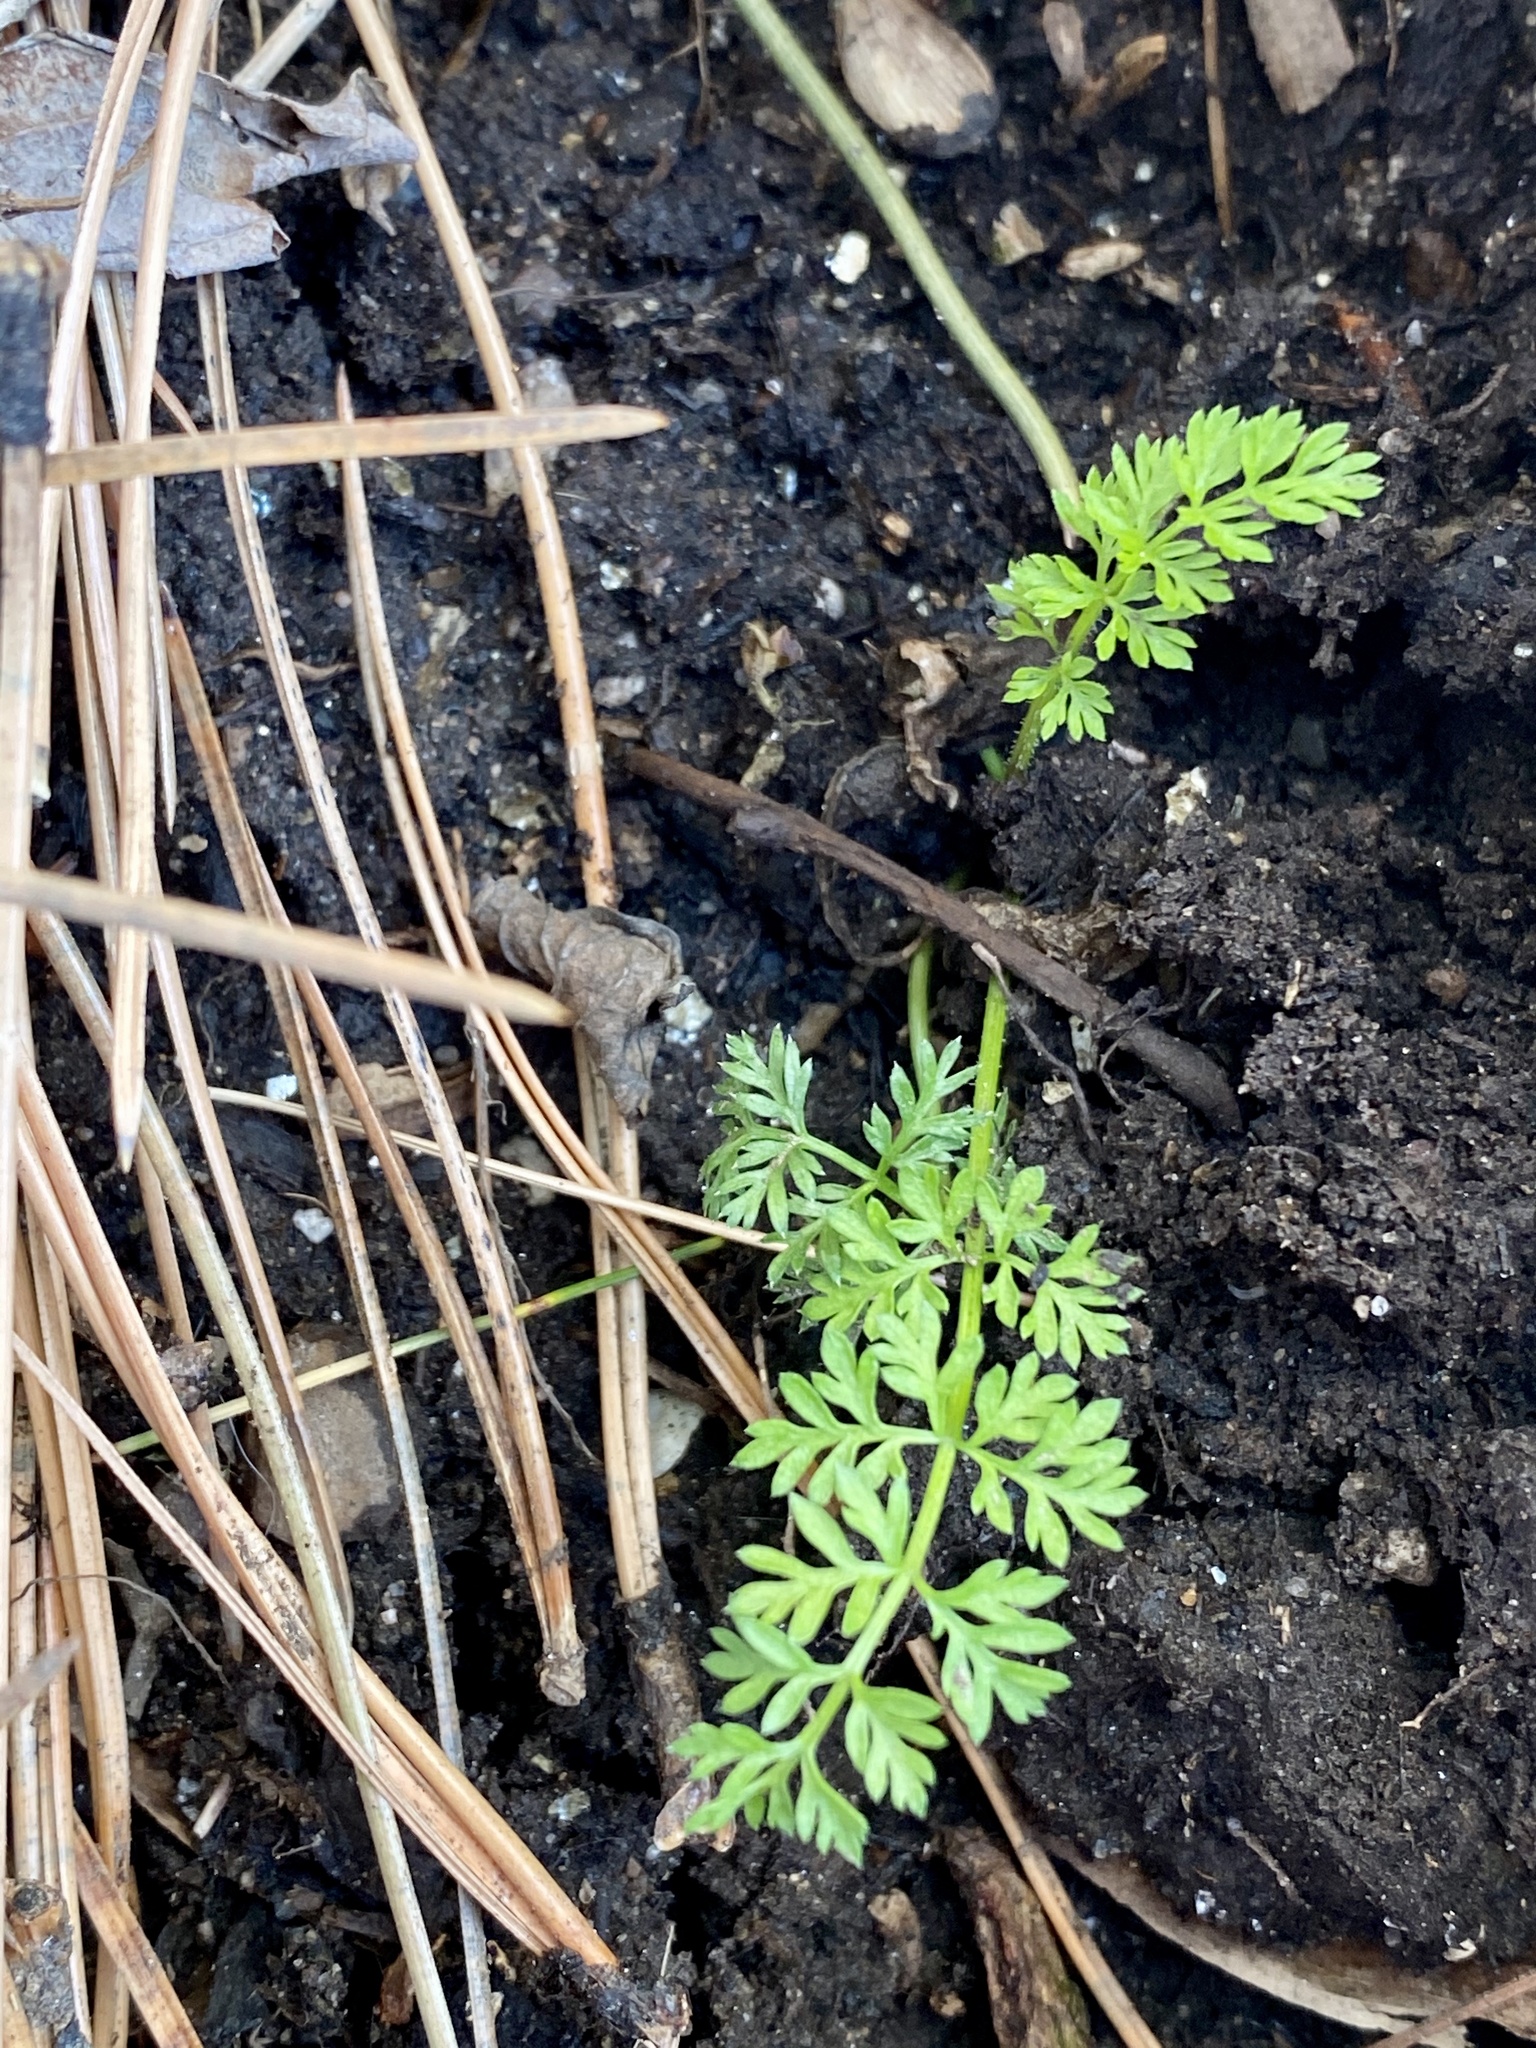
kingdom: Plantae
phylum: Tracheophyta
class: Magnoliopsida
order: Apiales
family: Apiaceae
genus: Daucus
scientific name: Daucus carota
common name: Wild carrot
